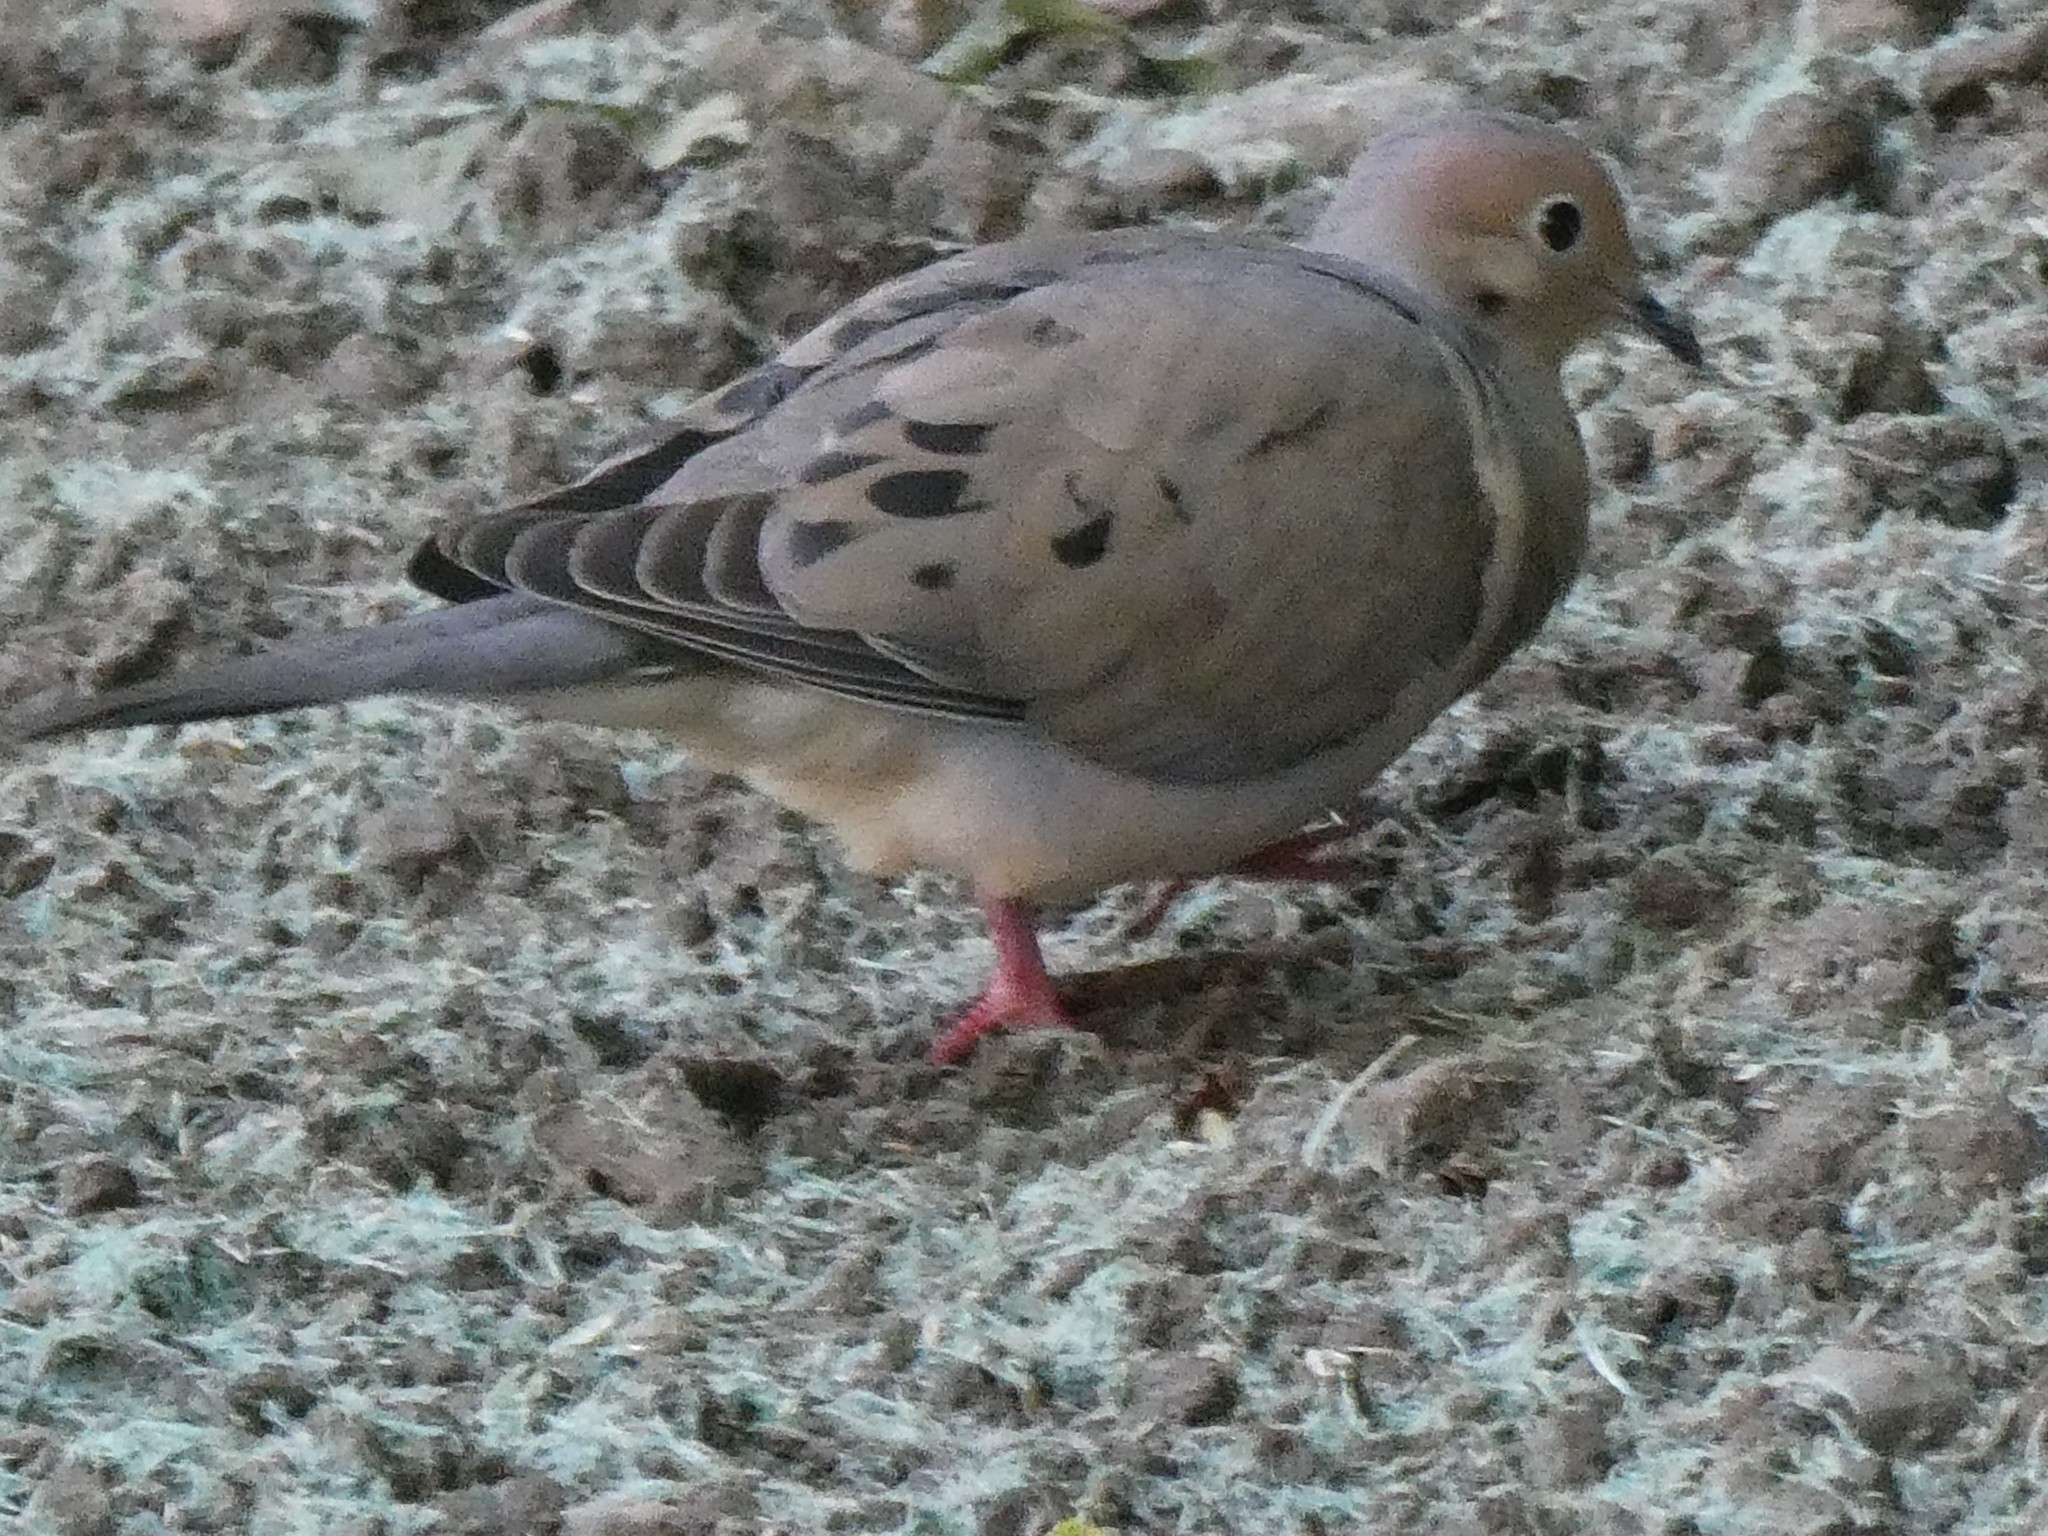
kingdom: Animalia
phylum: Chordata
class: Aves
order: Columbiformes
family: Columbidae
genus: Zenaida
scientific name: Zenaida macroura
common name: Mourning dove
